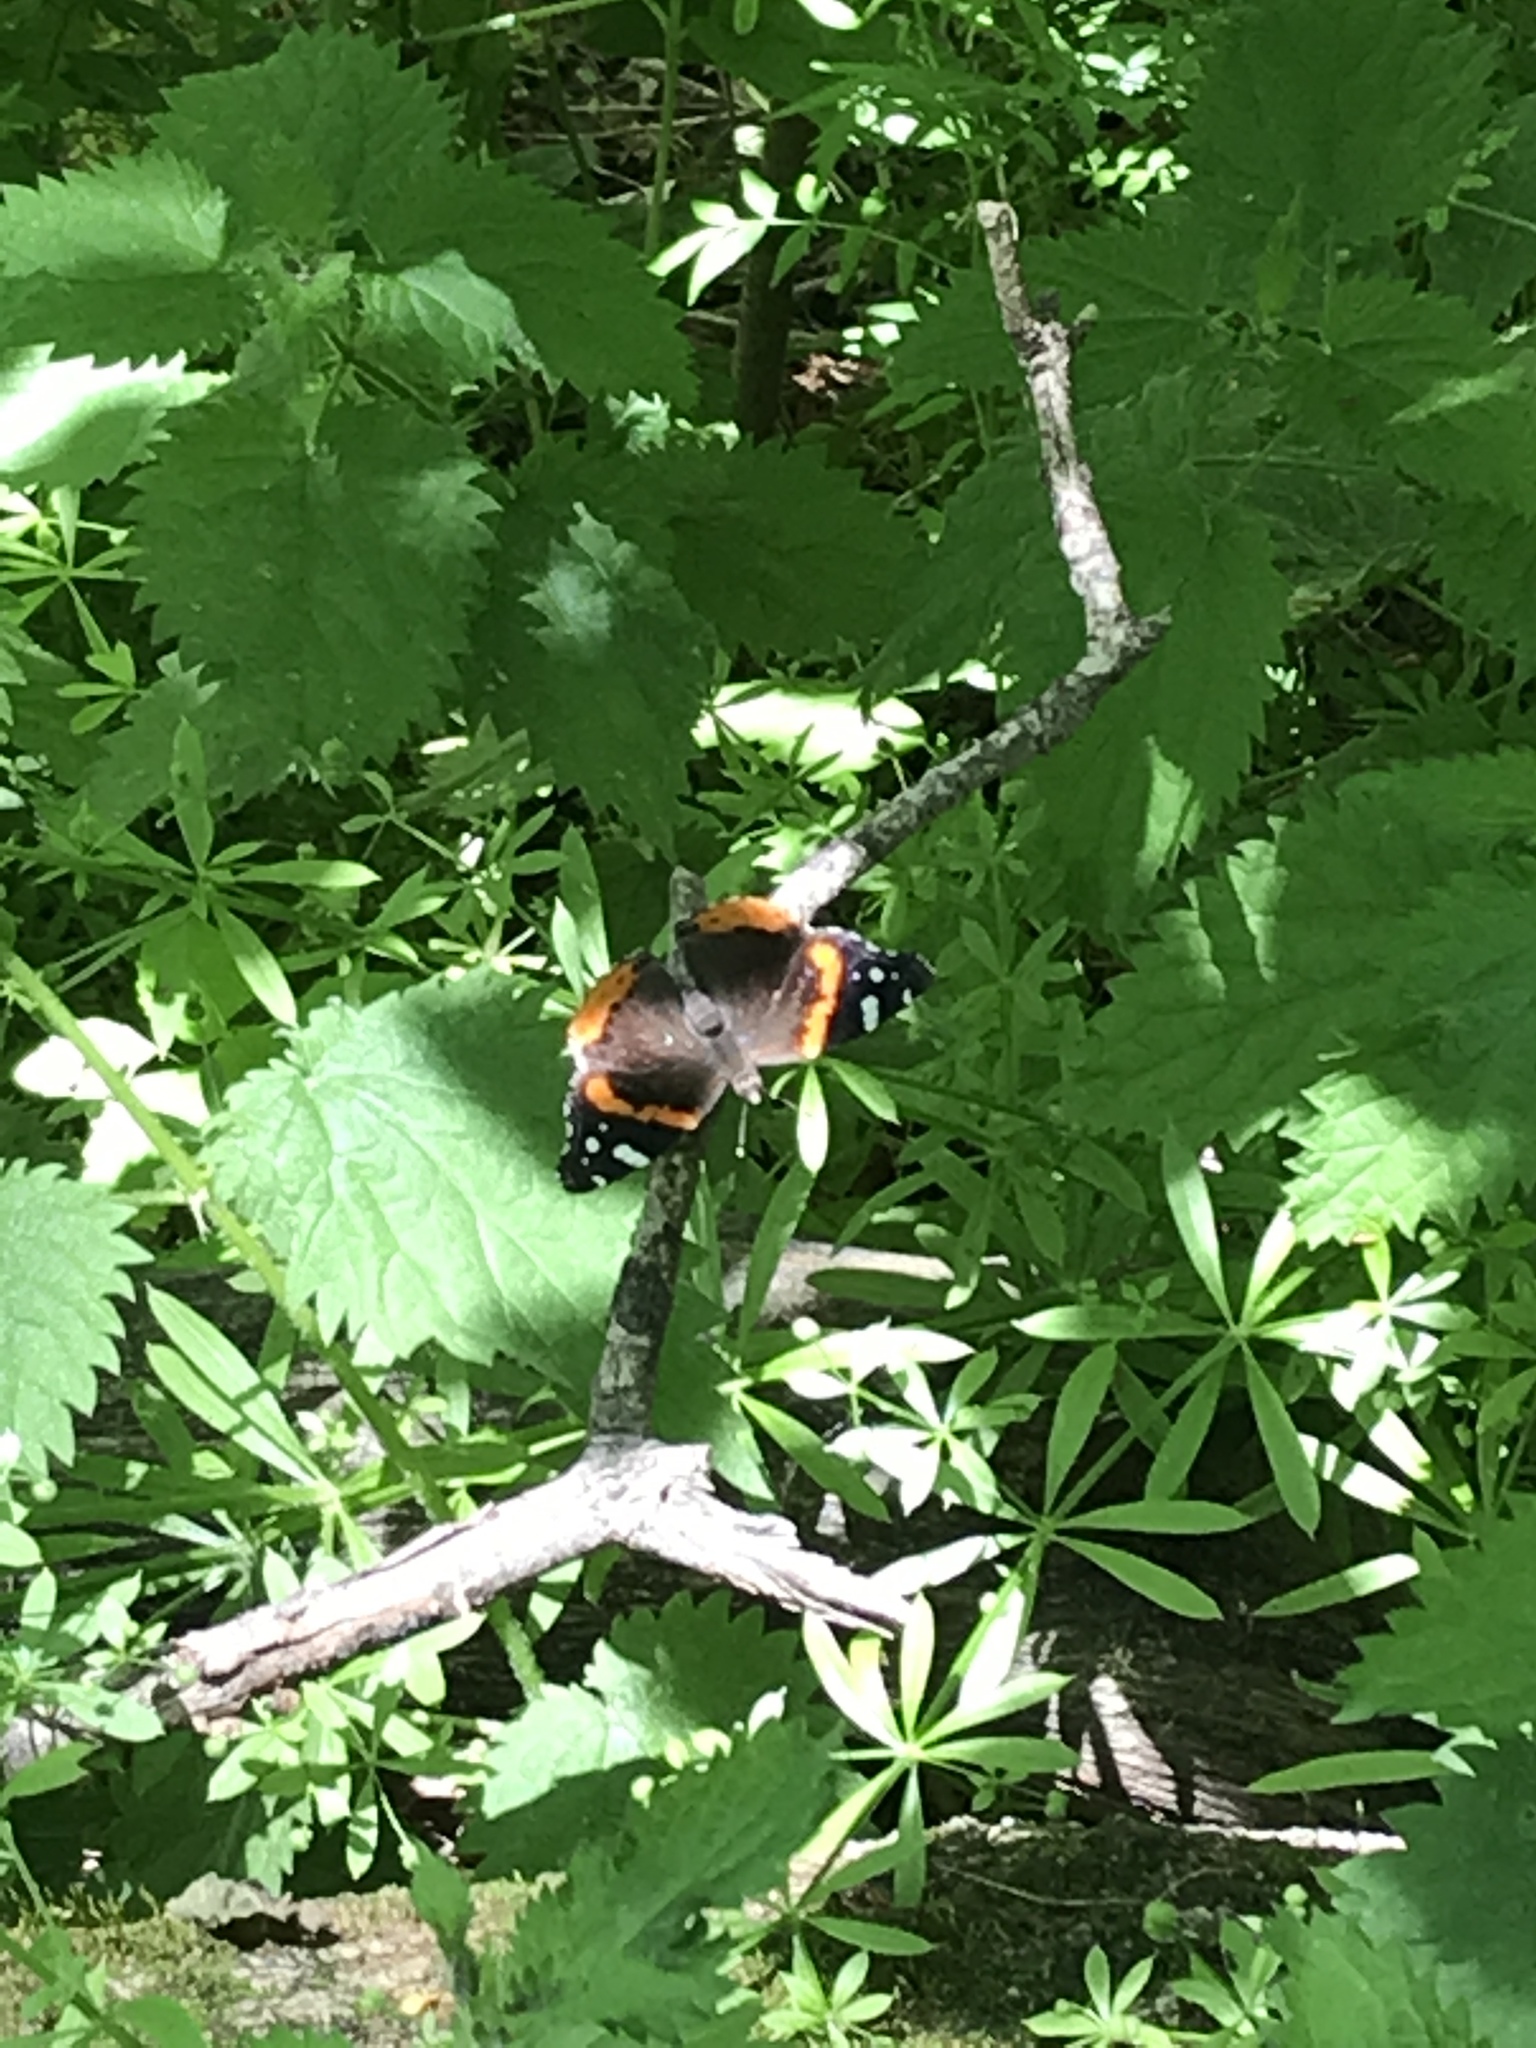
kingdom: Animalia
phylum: Arthropoda
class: Insecta
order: Lepidoptera
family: Nymphalidae
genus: Vanessa
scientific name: Vanessa atalanta
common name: Red admiral
